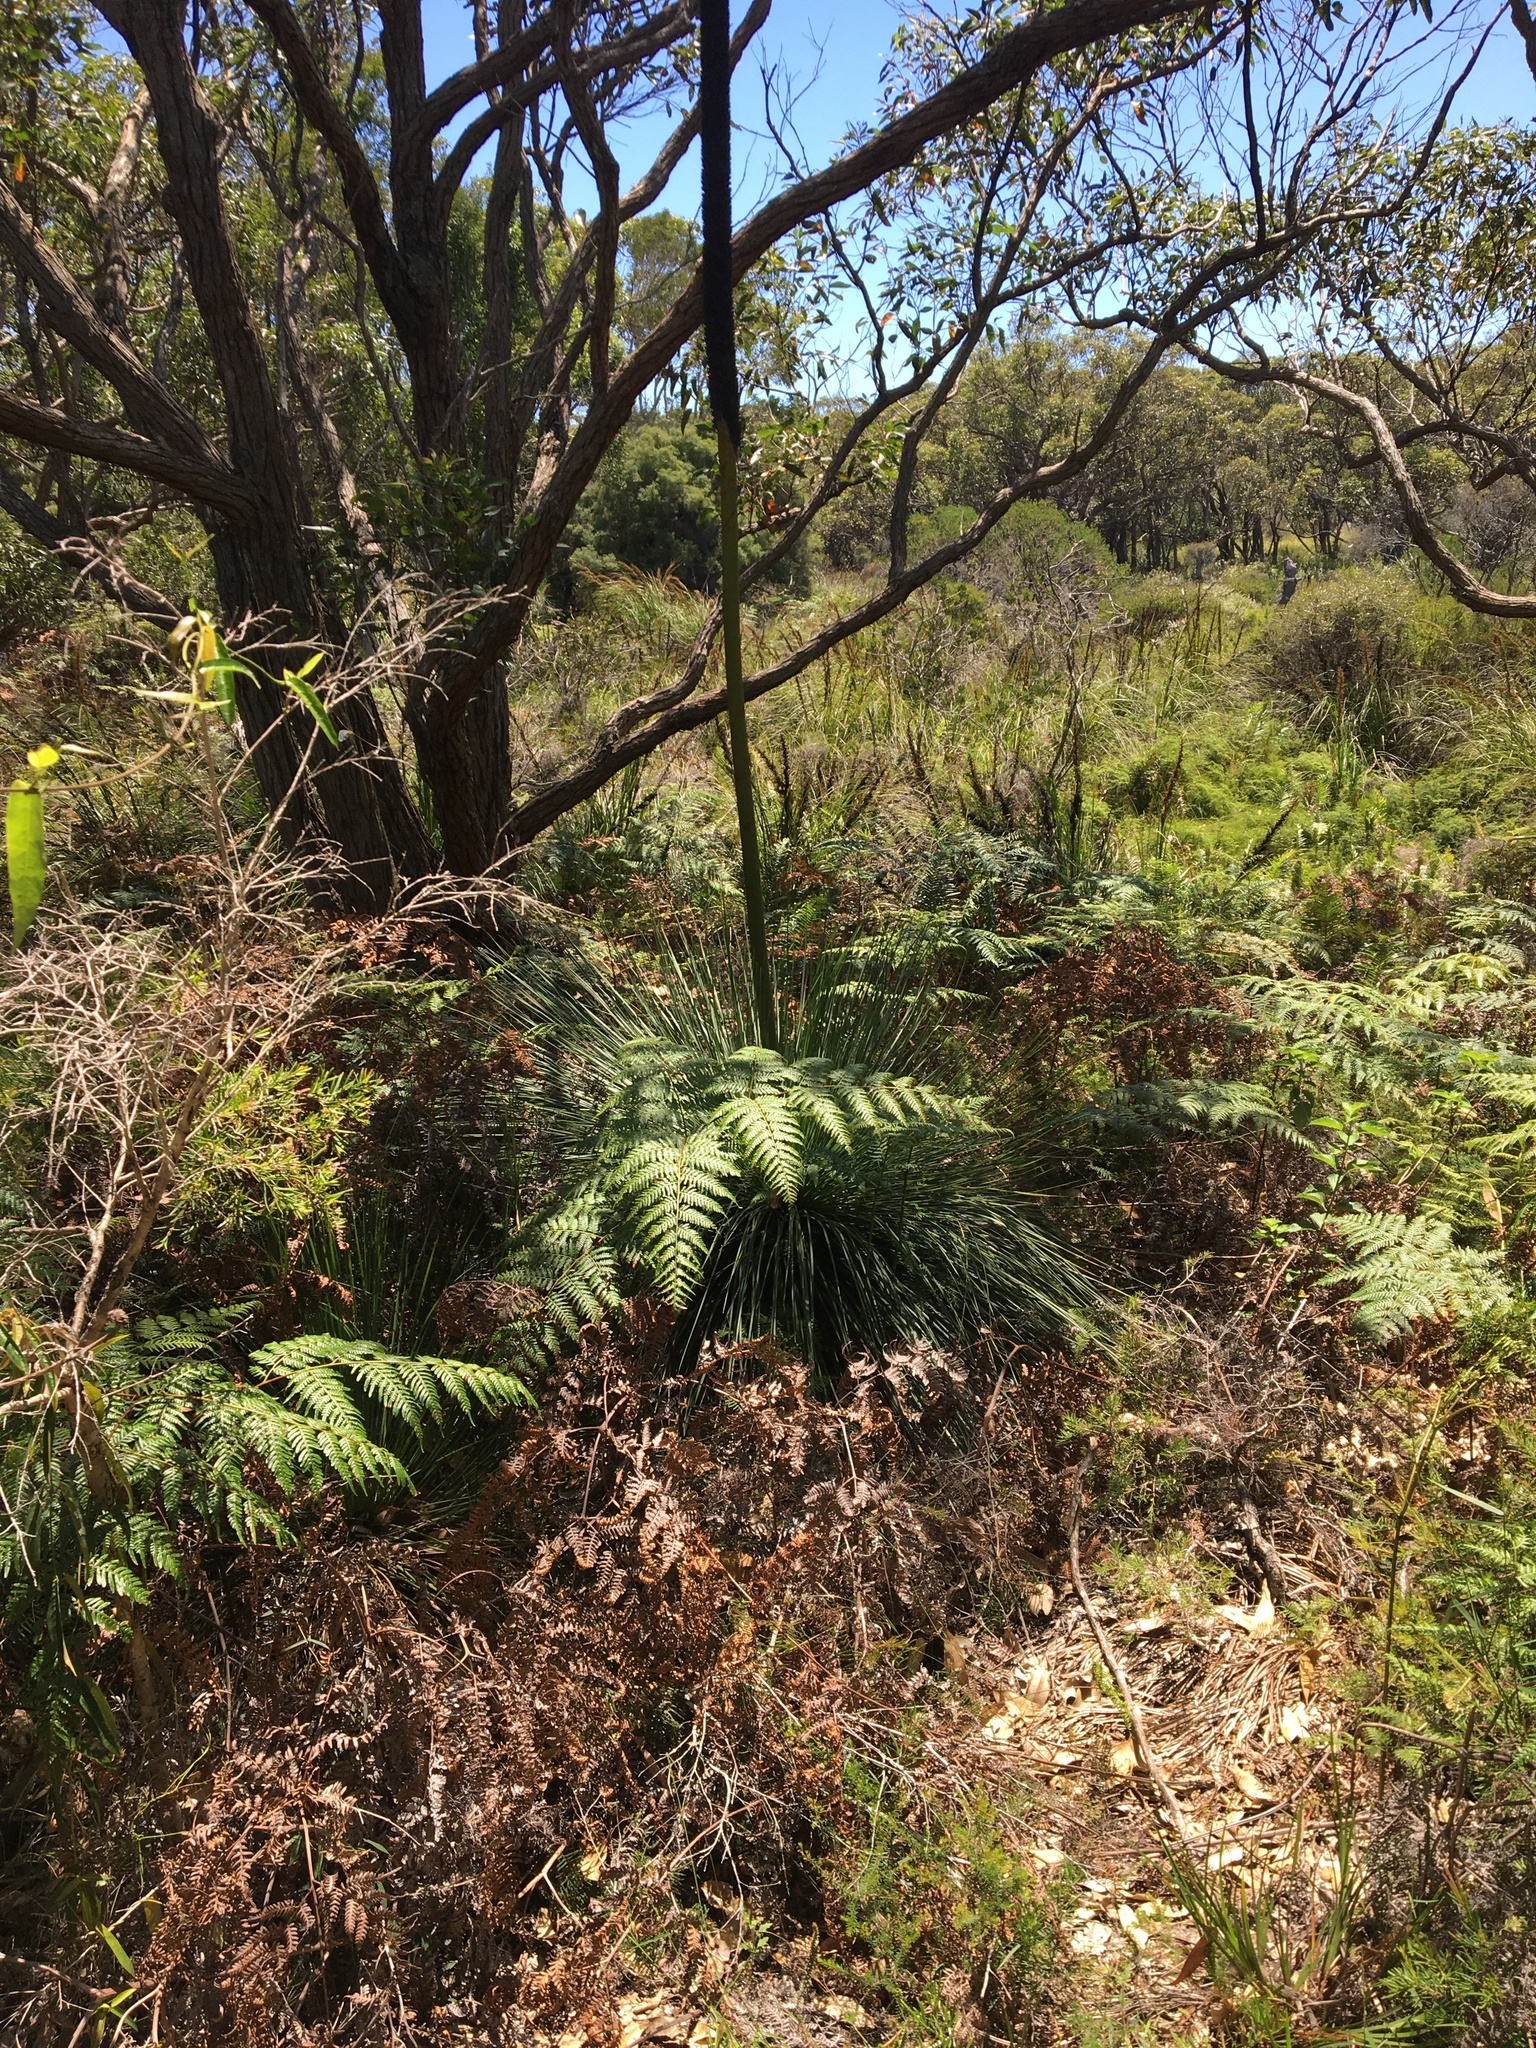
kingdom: Plantae
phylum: Tracheophyta
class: Liliopsida
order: Asparagales
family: Asphodelaceae
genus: Xanthorrhoea
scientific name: Xanthorrhoea fulva
